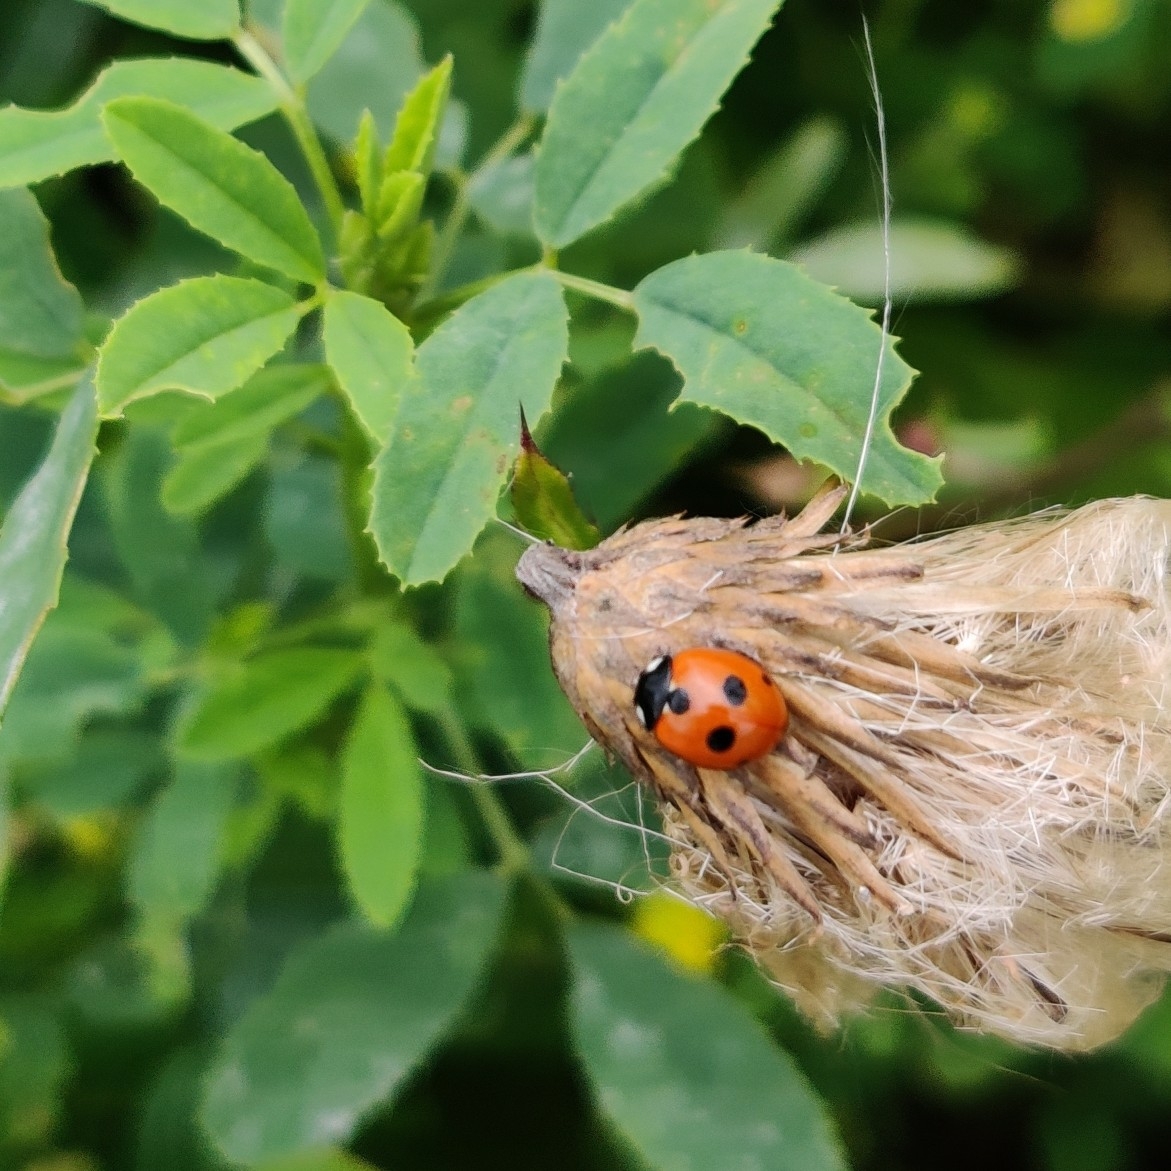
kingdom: Animalia
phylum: Arthropoda
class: Insecta
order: Coleoptera
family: Coccinellidae
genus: Coccinella
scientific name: Coccinella quinquepunctata
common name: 5-spot ladybird
